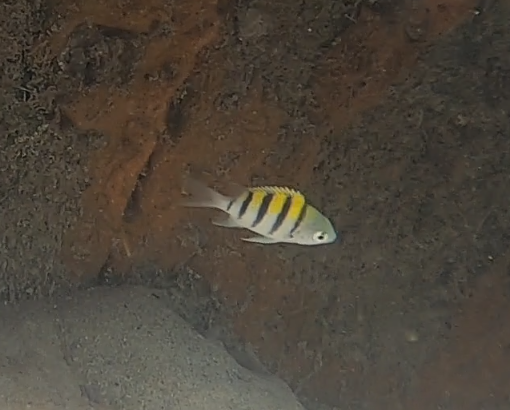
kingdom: Animalia
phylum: Chordata
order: Perciformes
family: Pomacentridae
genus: Abudefduf
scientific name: Abudefduf saxatilis
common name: Sergeant major
